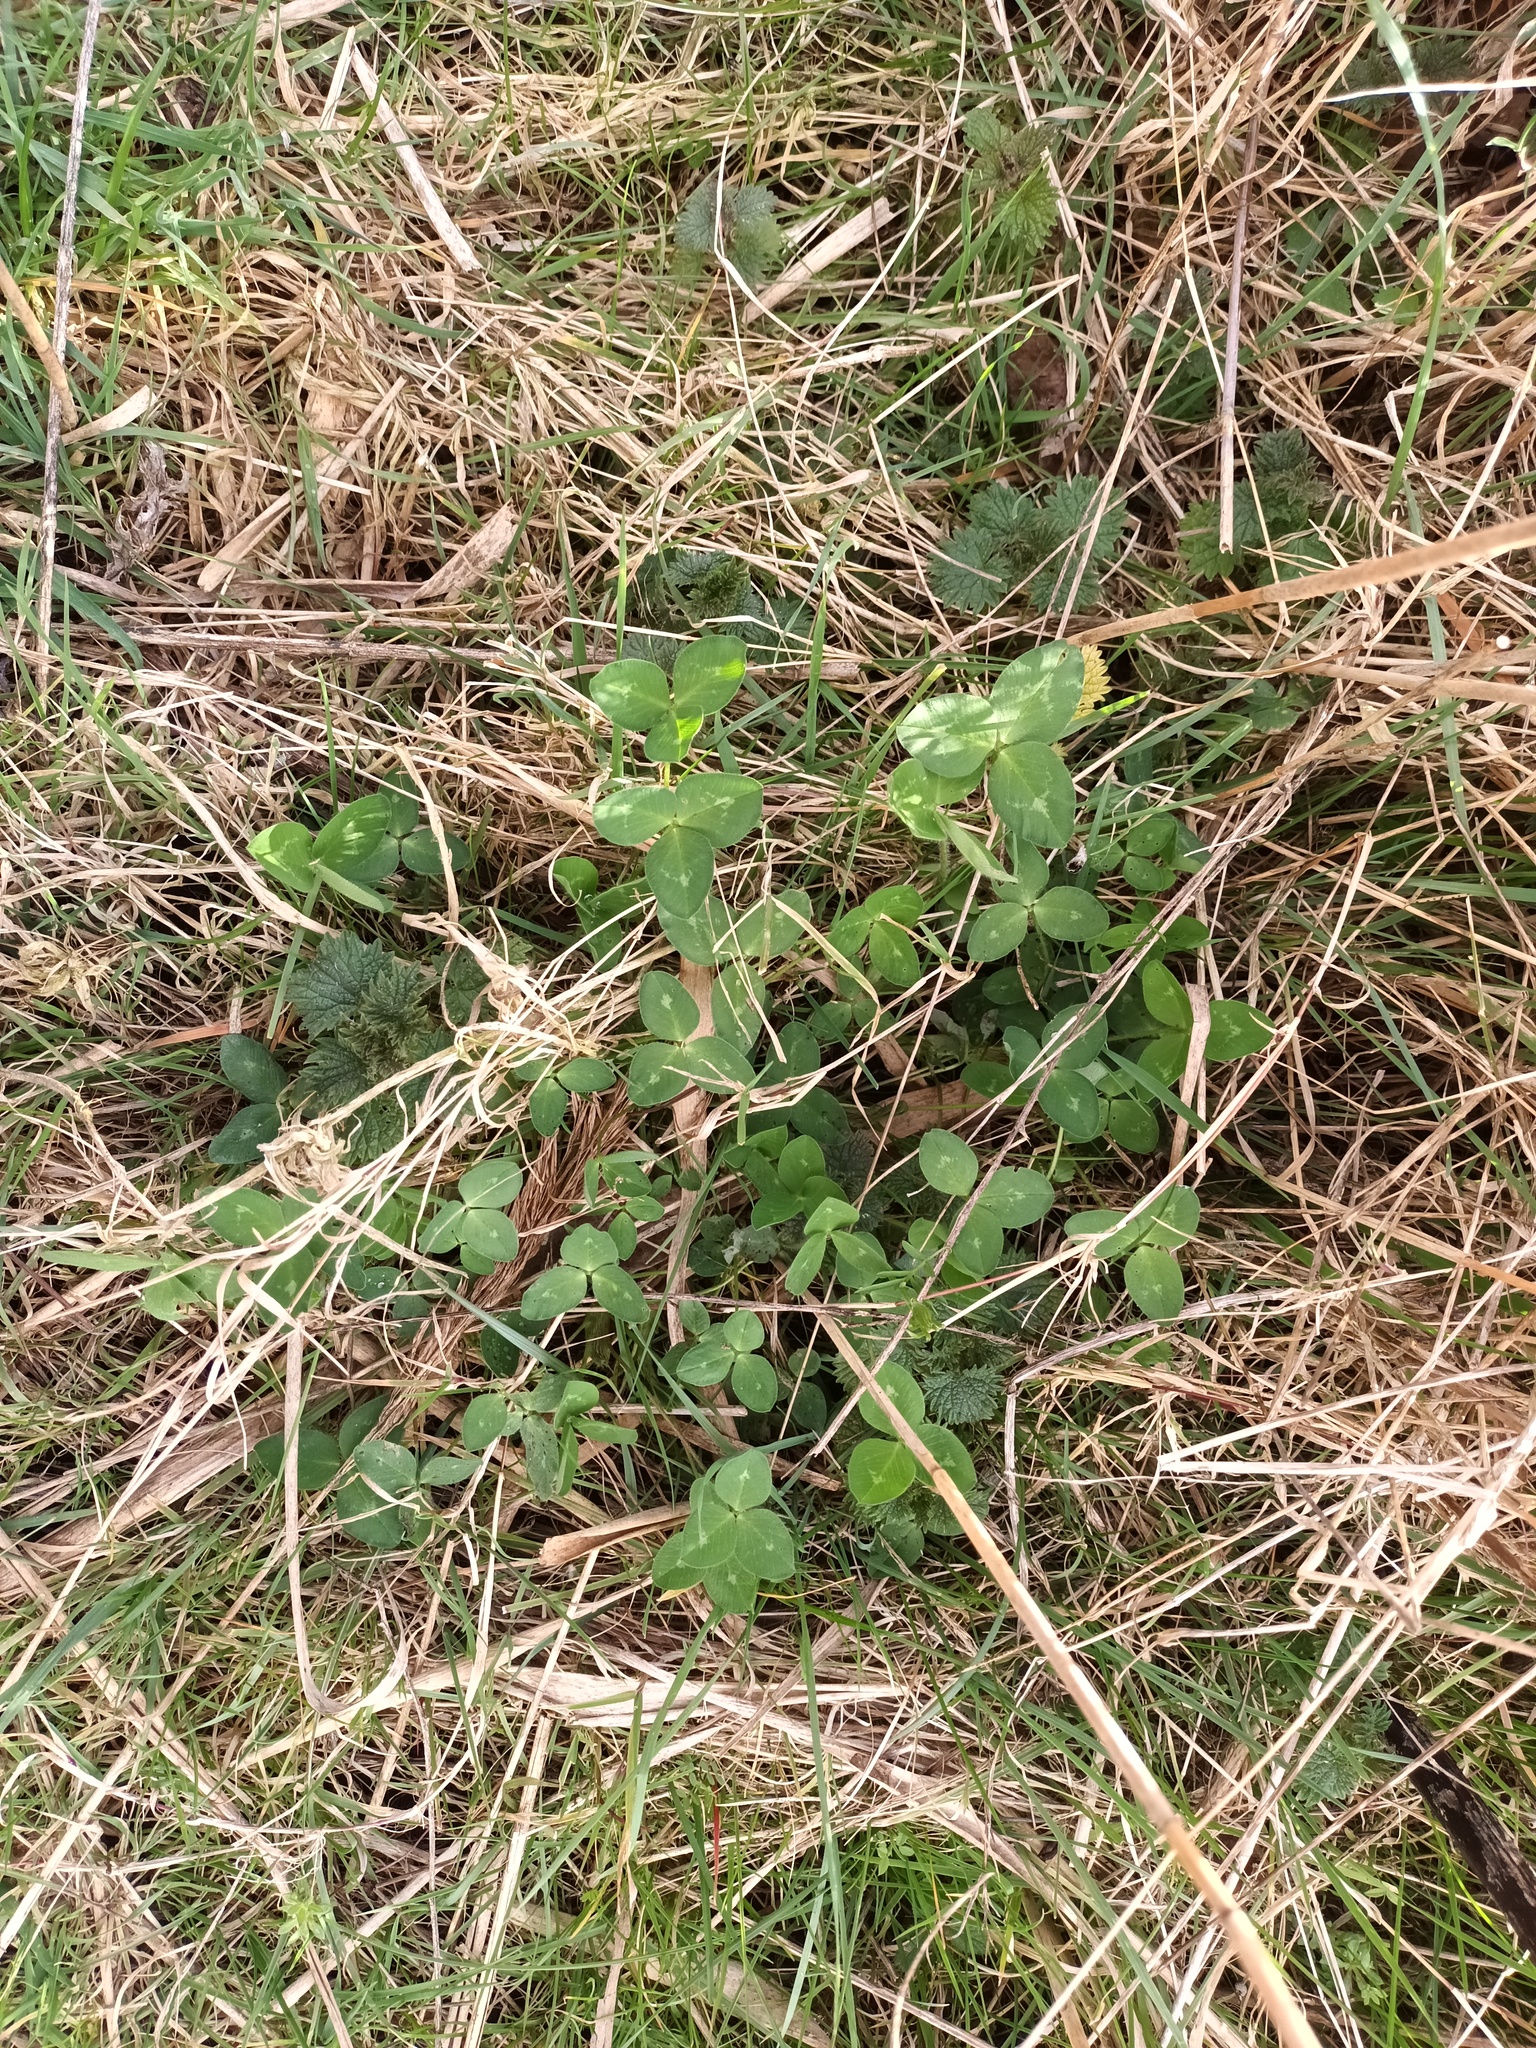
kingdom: Plantae
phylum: Tracheophyta
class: Magnoliopsida
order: Fabales
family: Fabaceae
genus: Trifolium
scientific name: Trifolium pratense
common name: Red clover
